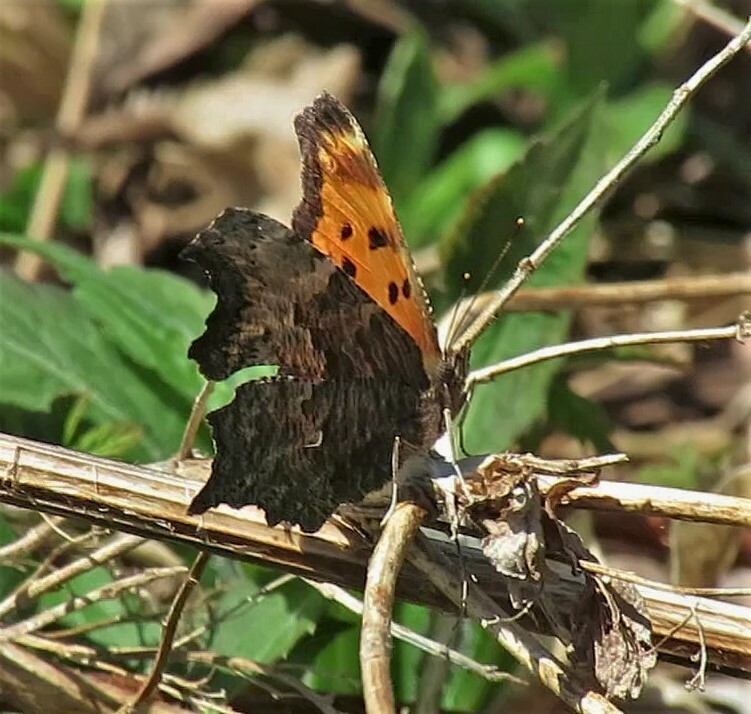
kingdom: Animalia
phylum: Arthropoda
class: Insecta
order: Lepidoptera
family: Nymphalidae
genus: Polygonia
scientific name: Polygonia progne
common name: Gray comma
